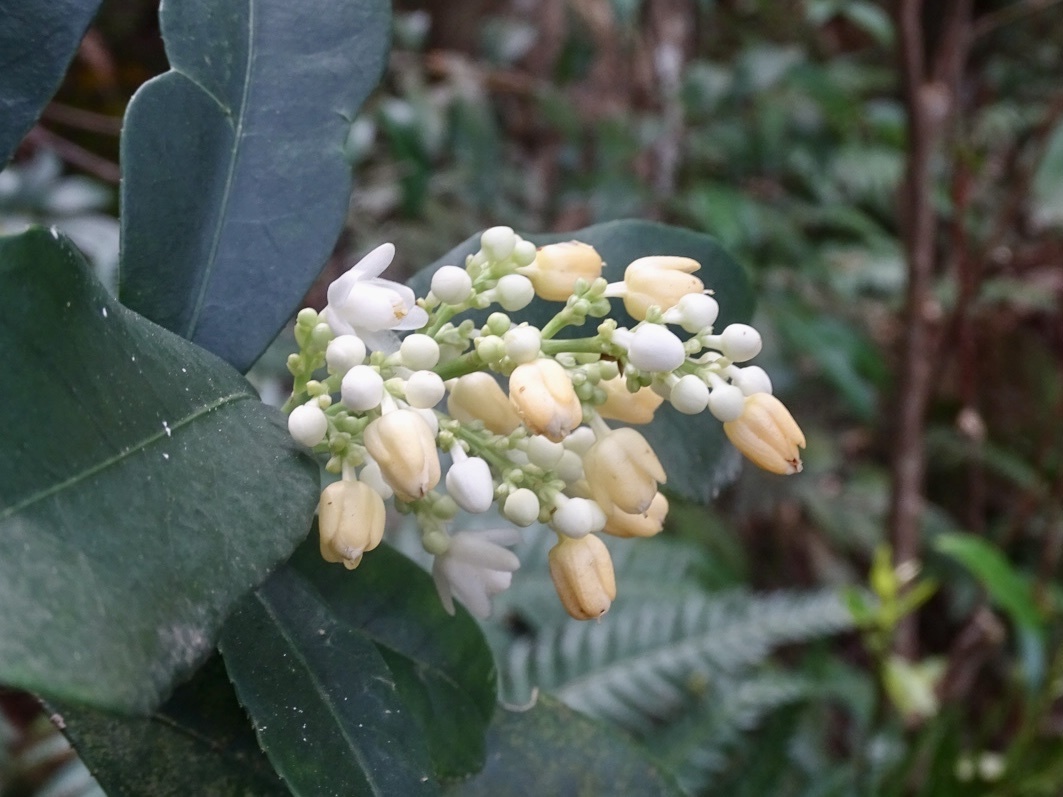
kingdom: Plantae
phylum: Tracheophyta
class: Magnoliopsida
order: Crossosomatales
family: Staphyleaceae
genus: Turpinia
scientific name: Turpinia arguta
